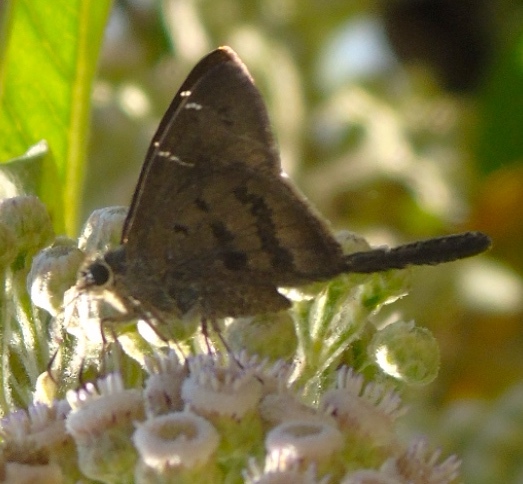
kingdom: Animalia
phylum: Arthropoda
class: Insecta
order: Lepidoptera
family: Hesperiidae
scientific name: Hesperiidae
